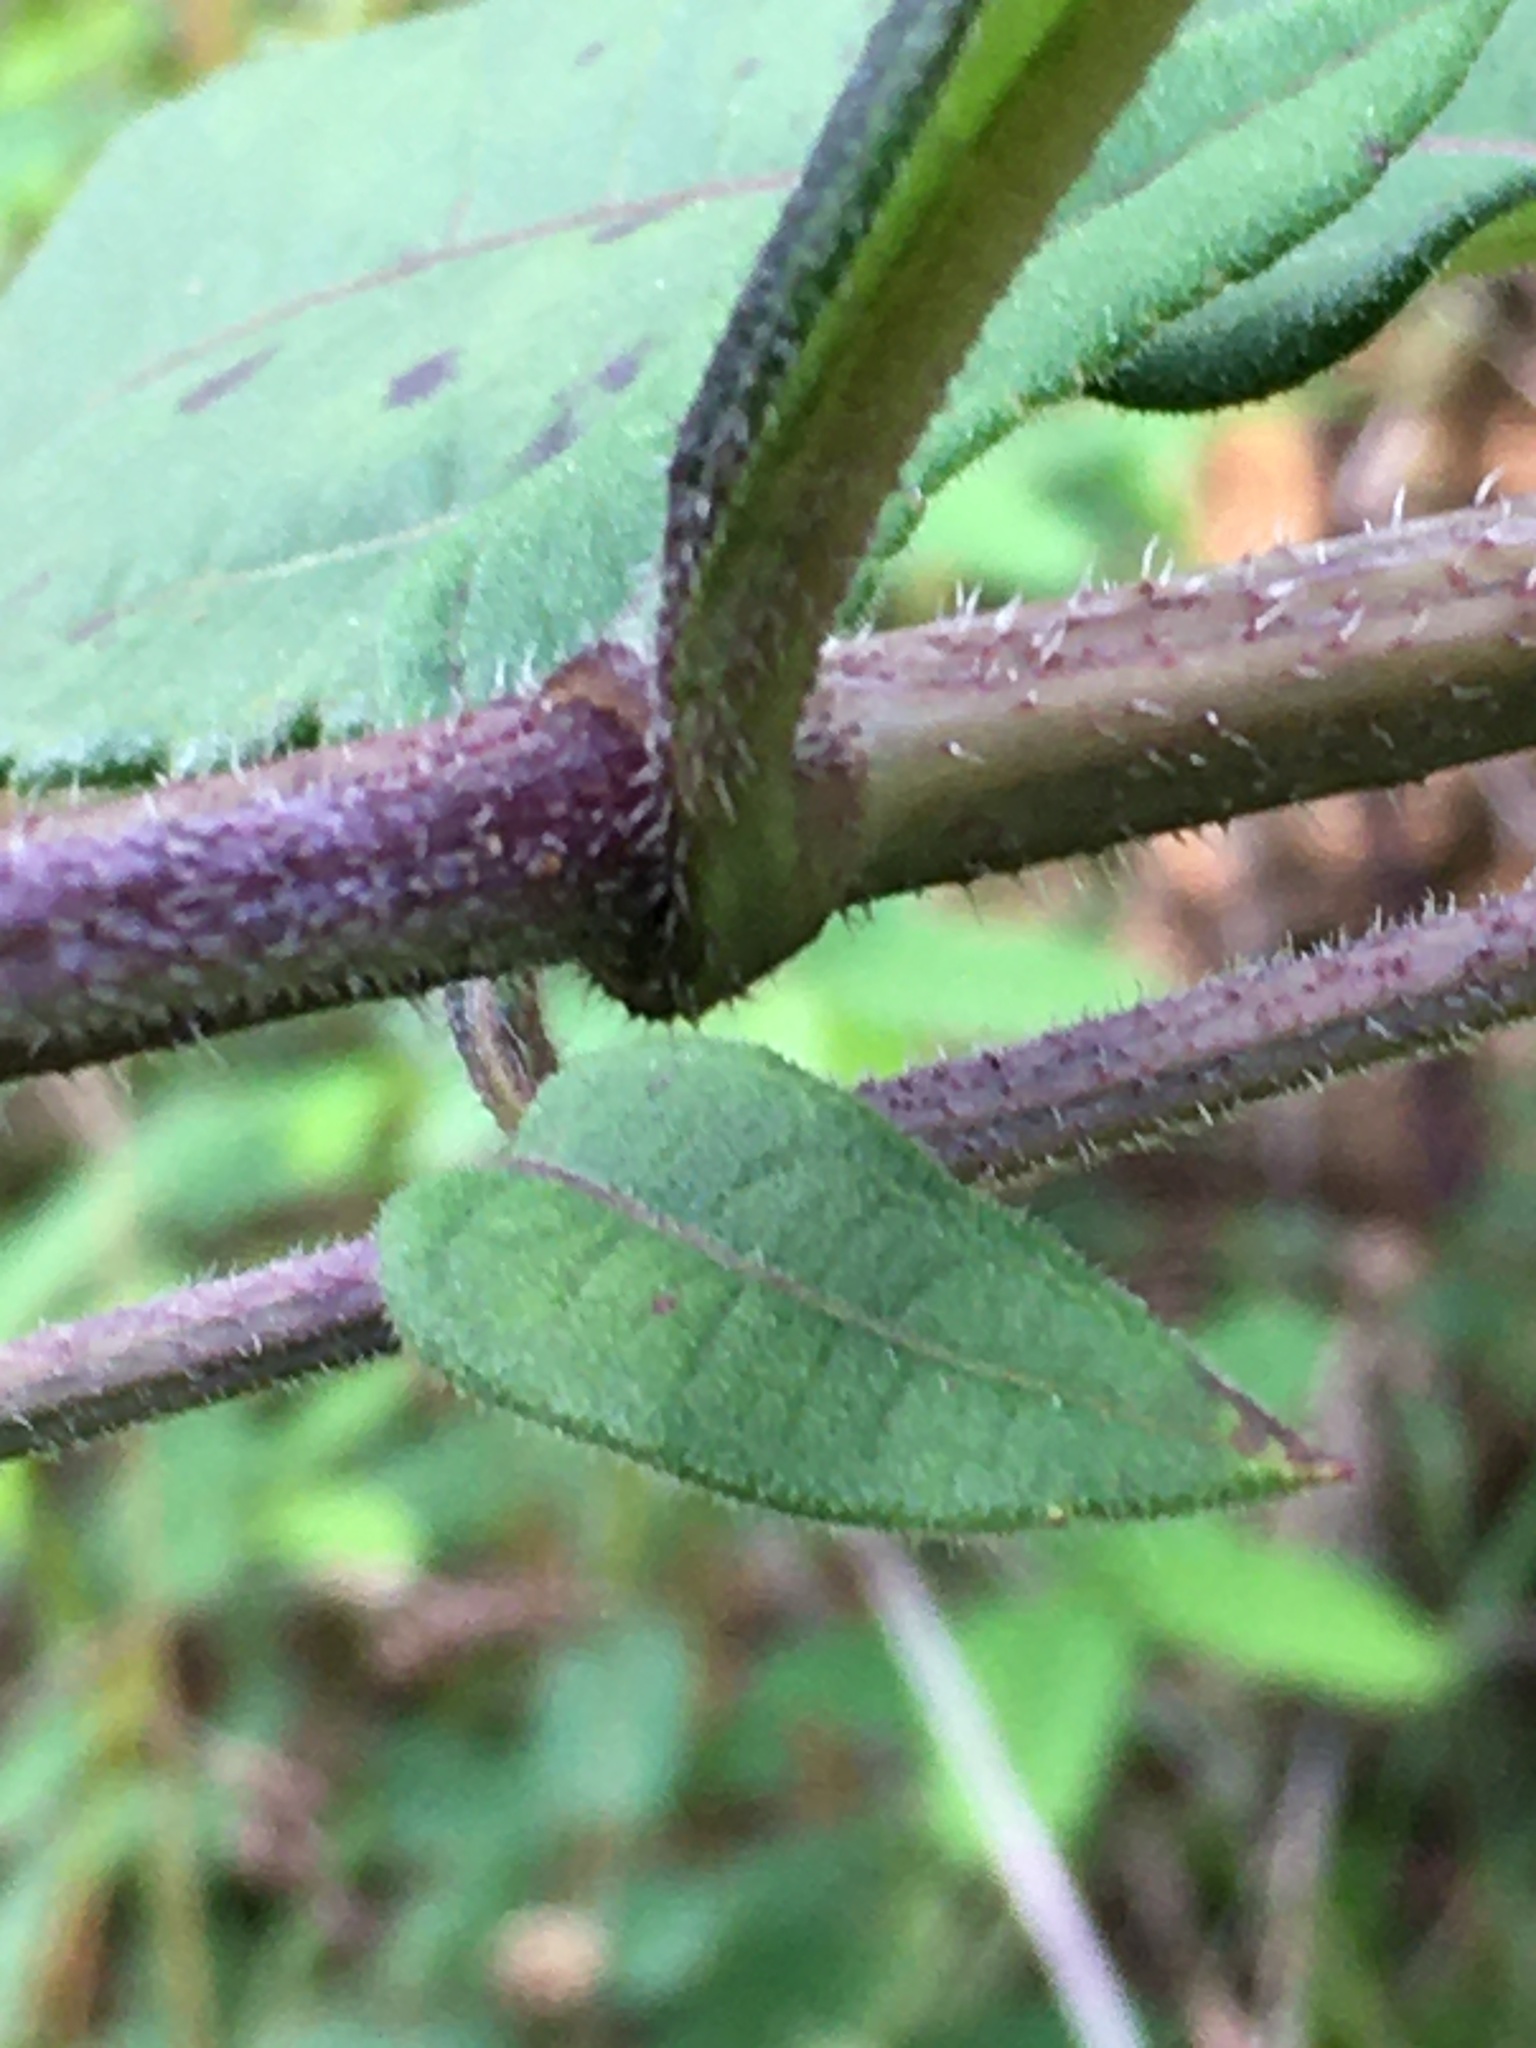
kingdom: Plantae
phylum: Tracheophyta
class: Magnoliopsida
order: Asterales
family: Asteraceae
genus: Helianthus
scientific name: Helianthus resinosus
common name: Resin-dot sunflower
